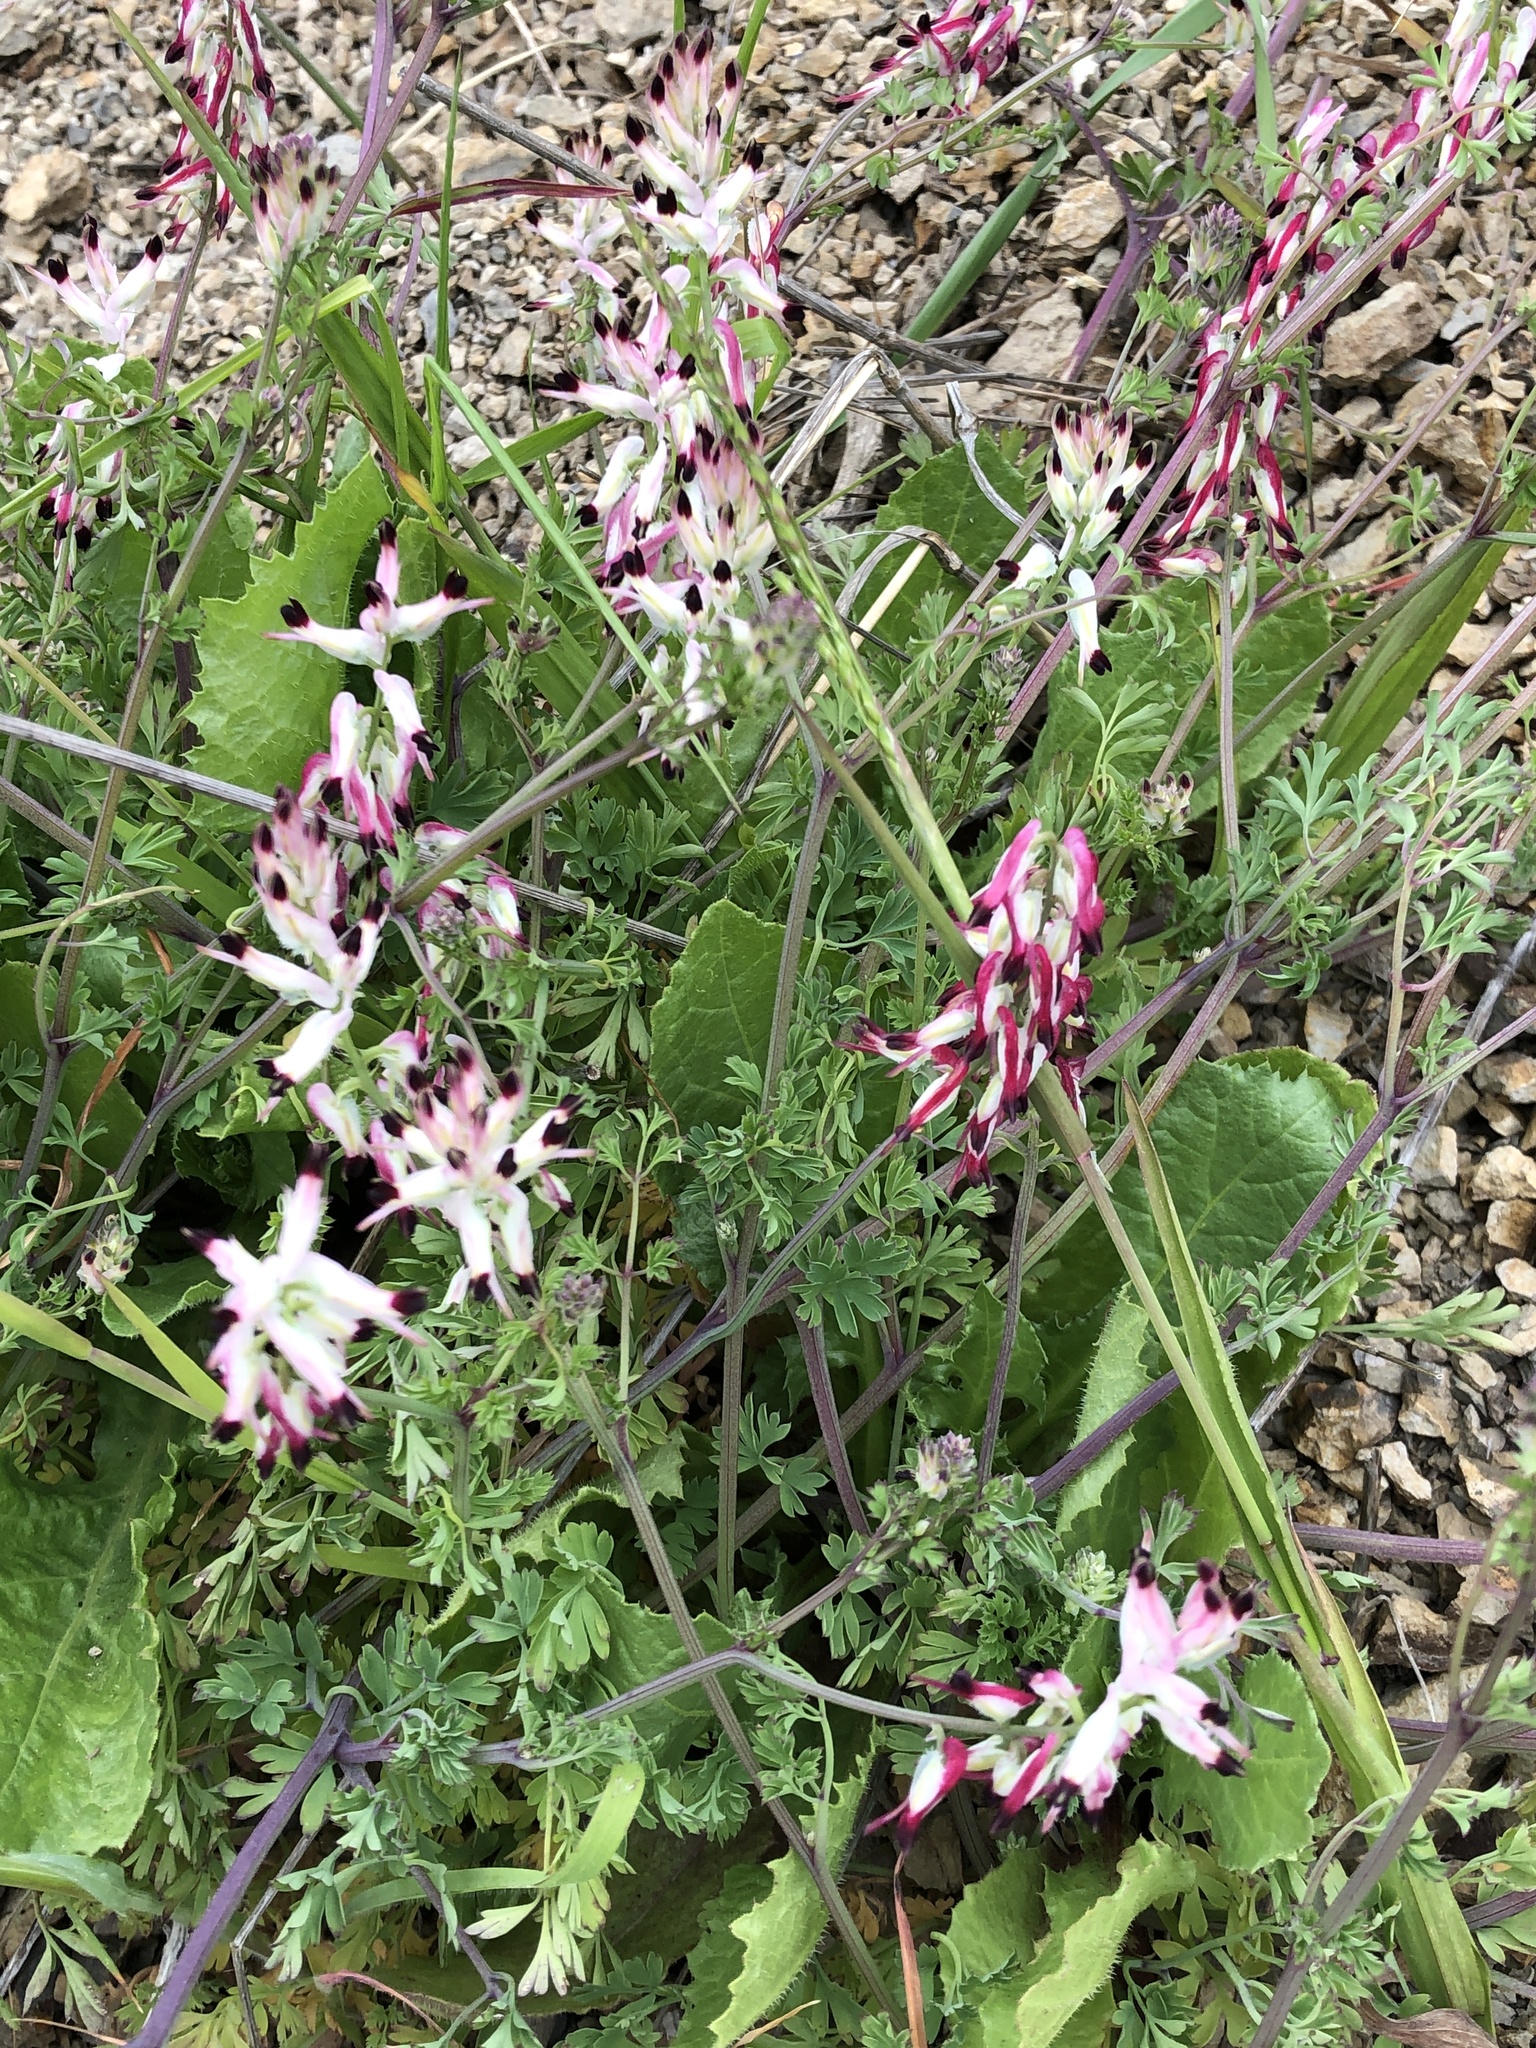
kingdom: Plantae
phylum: Tracheophyta
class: Magnoliopsida
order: Ranunculales
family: Papaveraceae
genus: Fumaria
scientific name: Fumaria capreolata
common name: White ramping-fumitory
